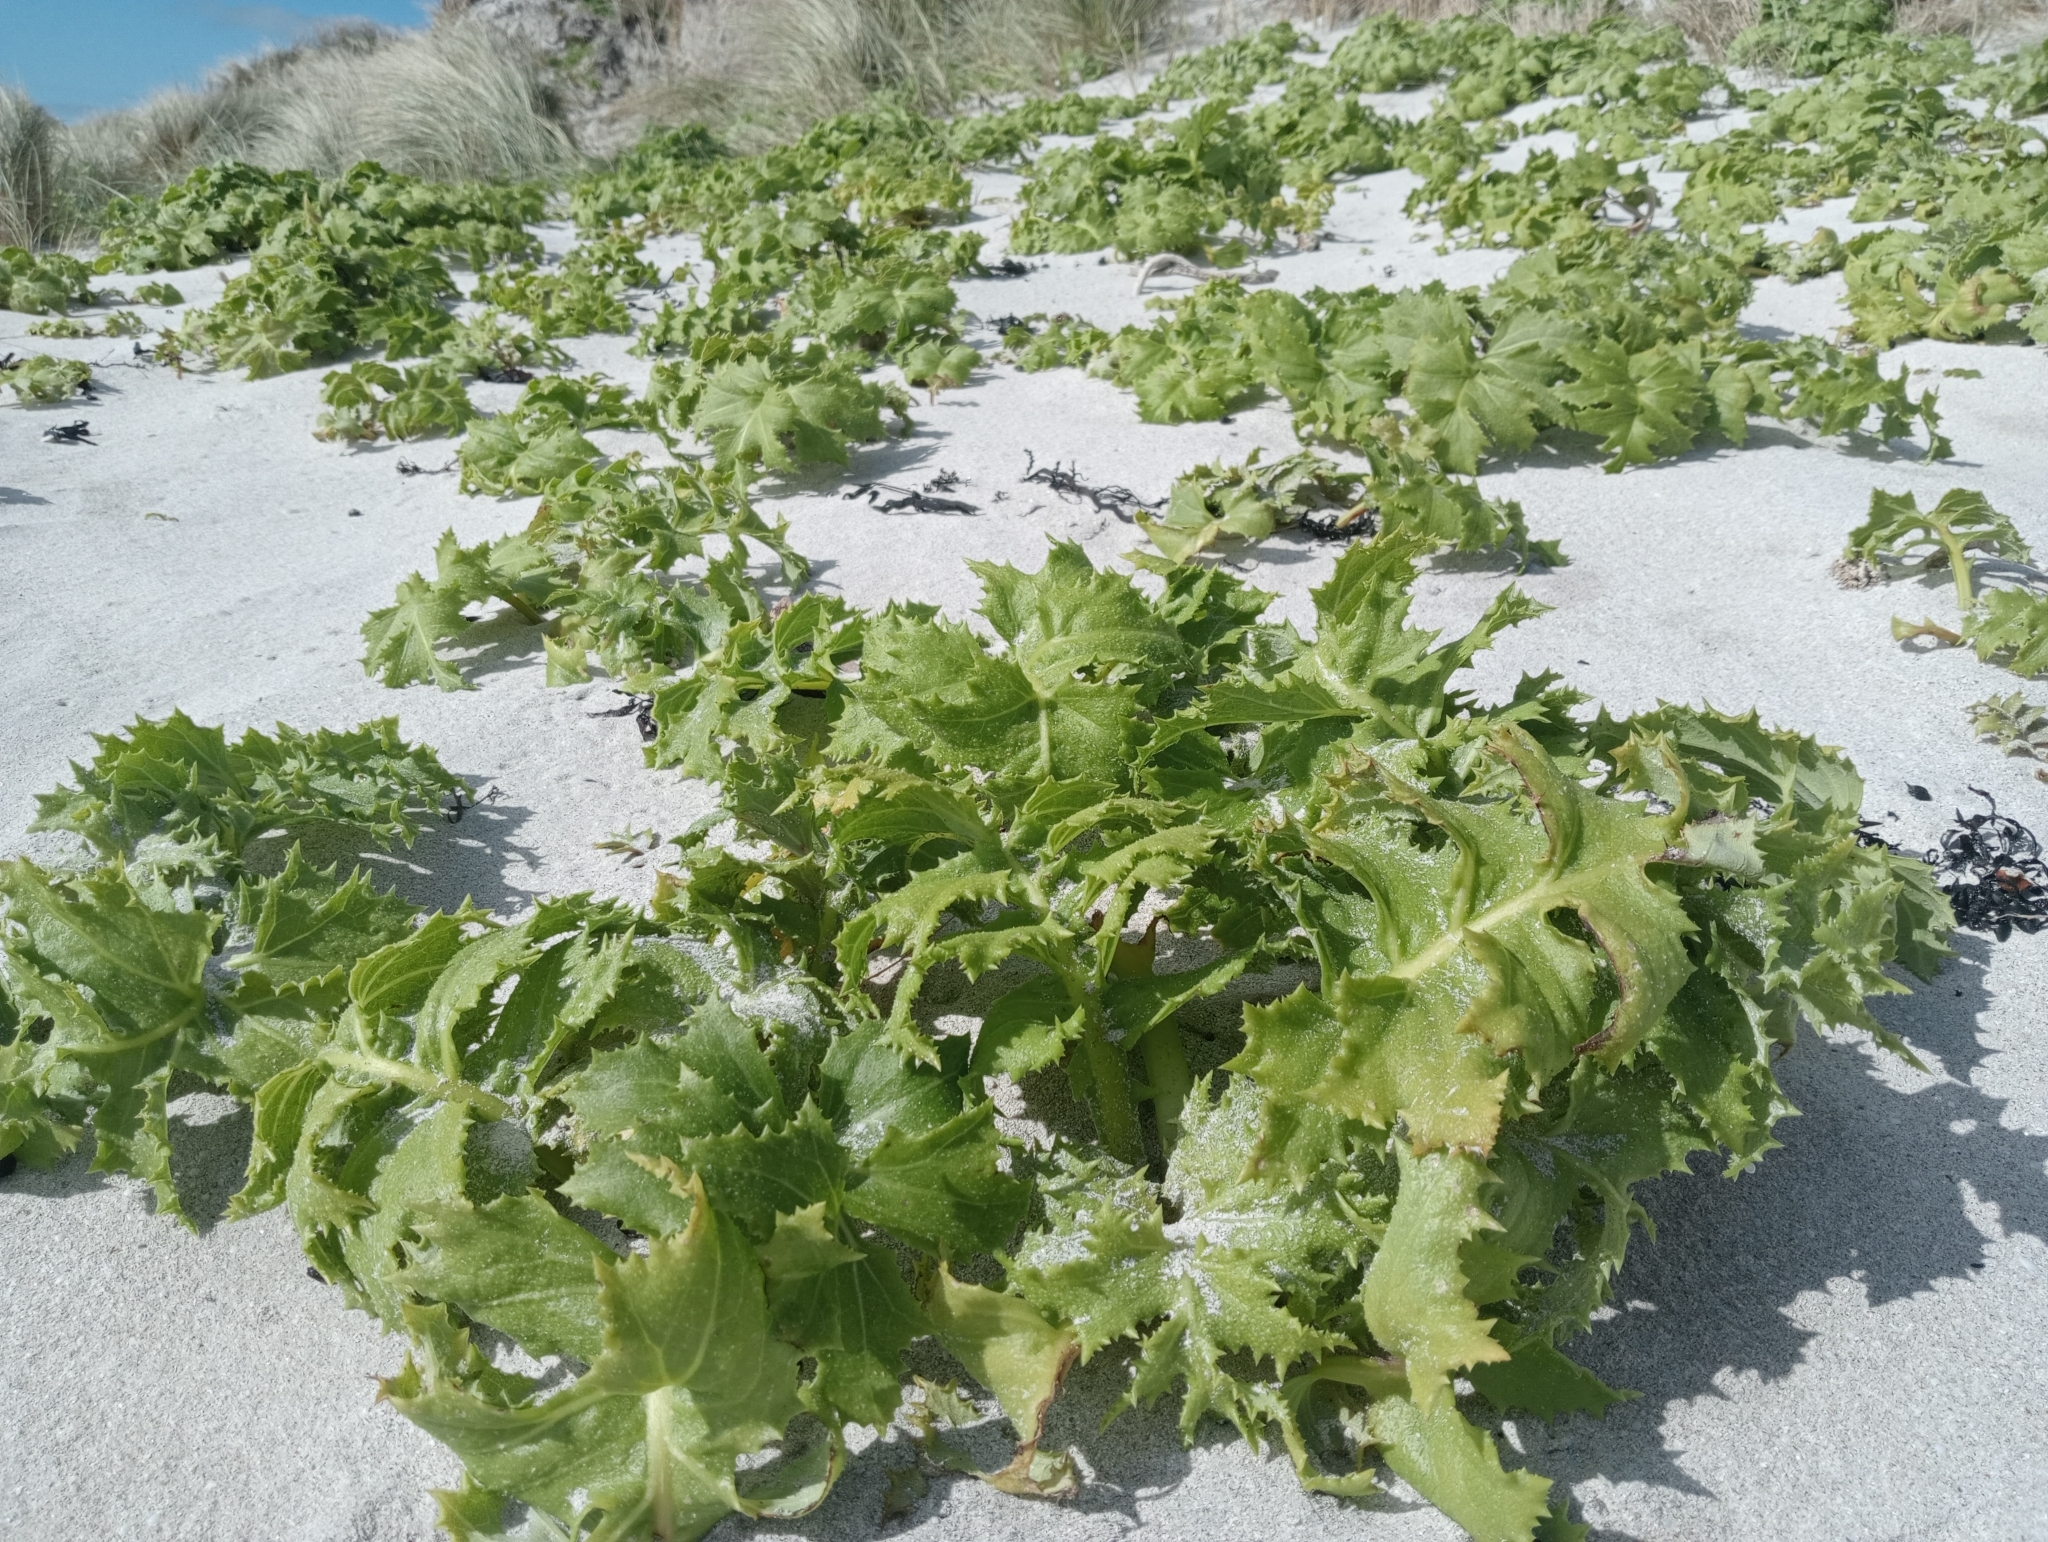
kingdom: Plantae
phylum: Tracheophyta
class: Magnoliopsida
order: Asterales
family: Asteraceae
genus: Sonchus
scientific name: Sonchus grandifolius
